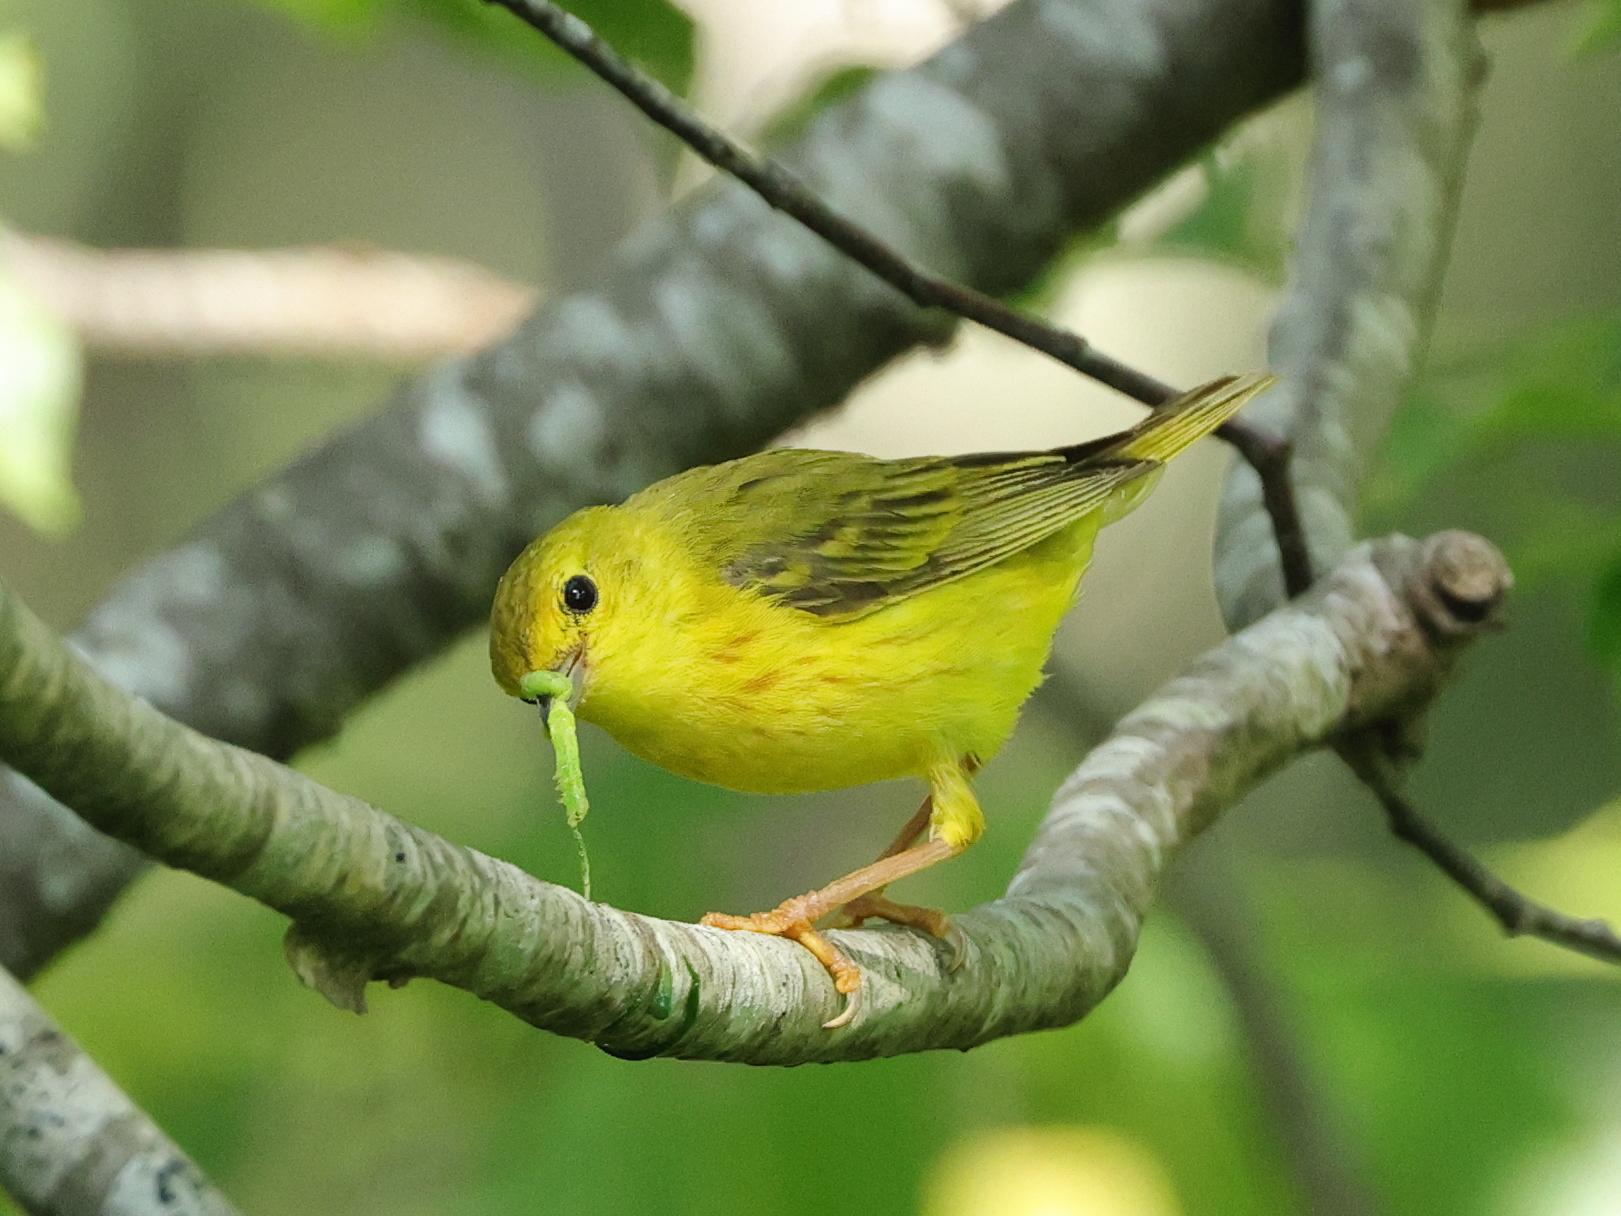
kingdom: Animalia
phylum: Chordata
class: Aves
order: Passeriformes
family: Parulidae
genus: Setophaga
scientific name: Setophaga petechia
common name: Yellow warbler
